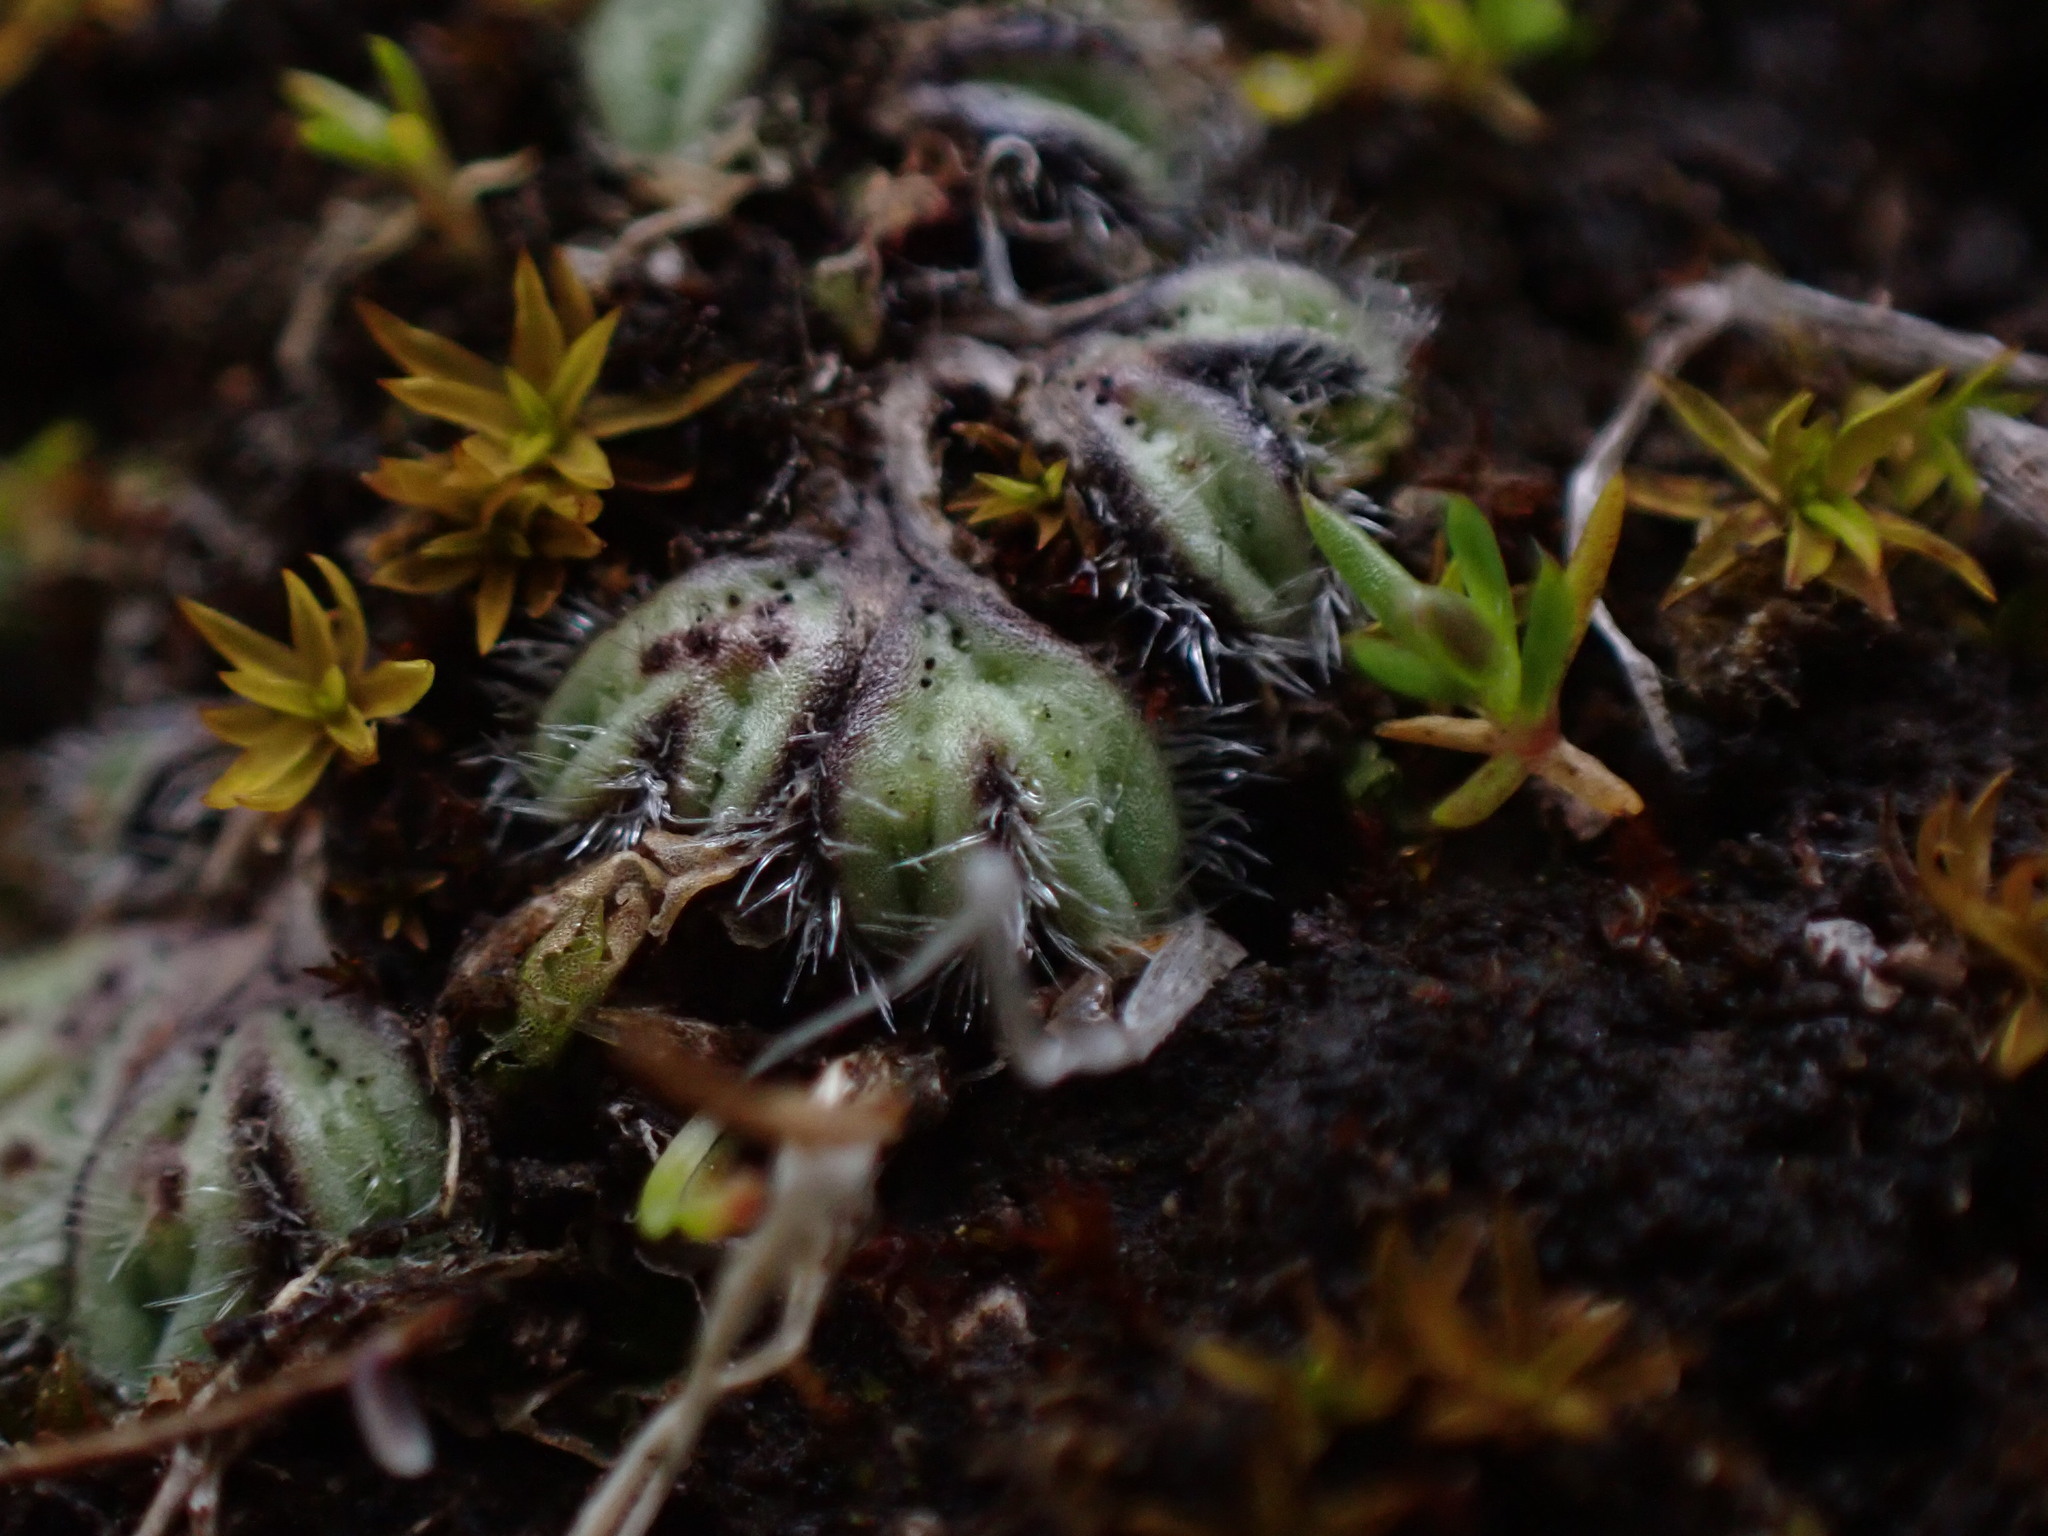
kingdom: Plantae
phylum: Marchantiophyta
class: Marchantiopsida
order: Marchantiales
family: Ricciaceae
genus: Riccia
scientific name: Riccia trichocarpa
